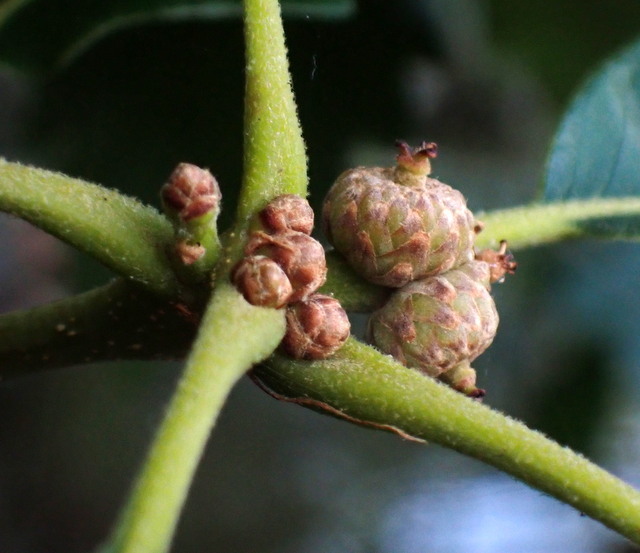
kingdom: Plantae
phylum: Tracheophyta
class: Magnoliopsida
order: Fagales
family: Fagaceae
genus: Quercus
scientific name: Quercus michauxii
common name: Swamp chestnut oak
